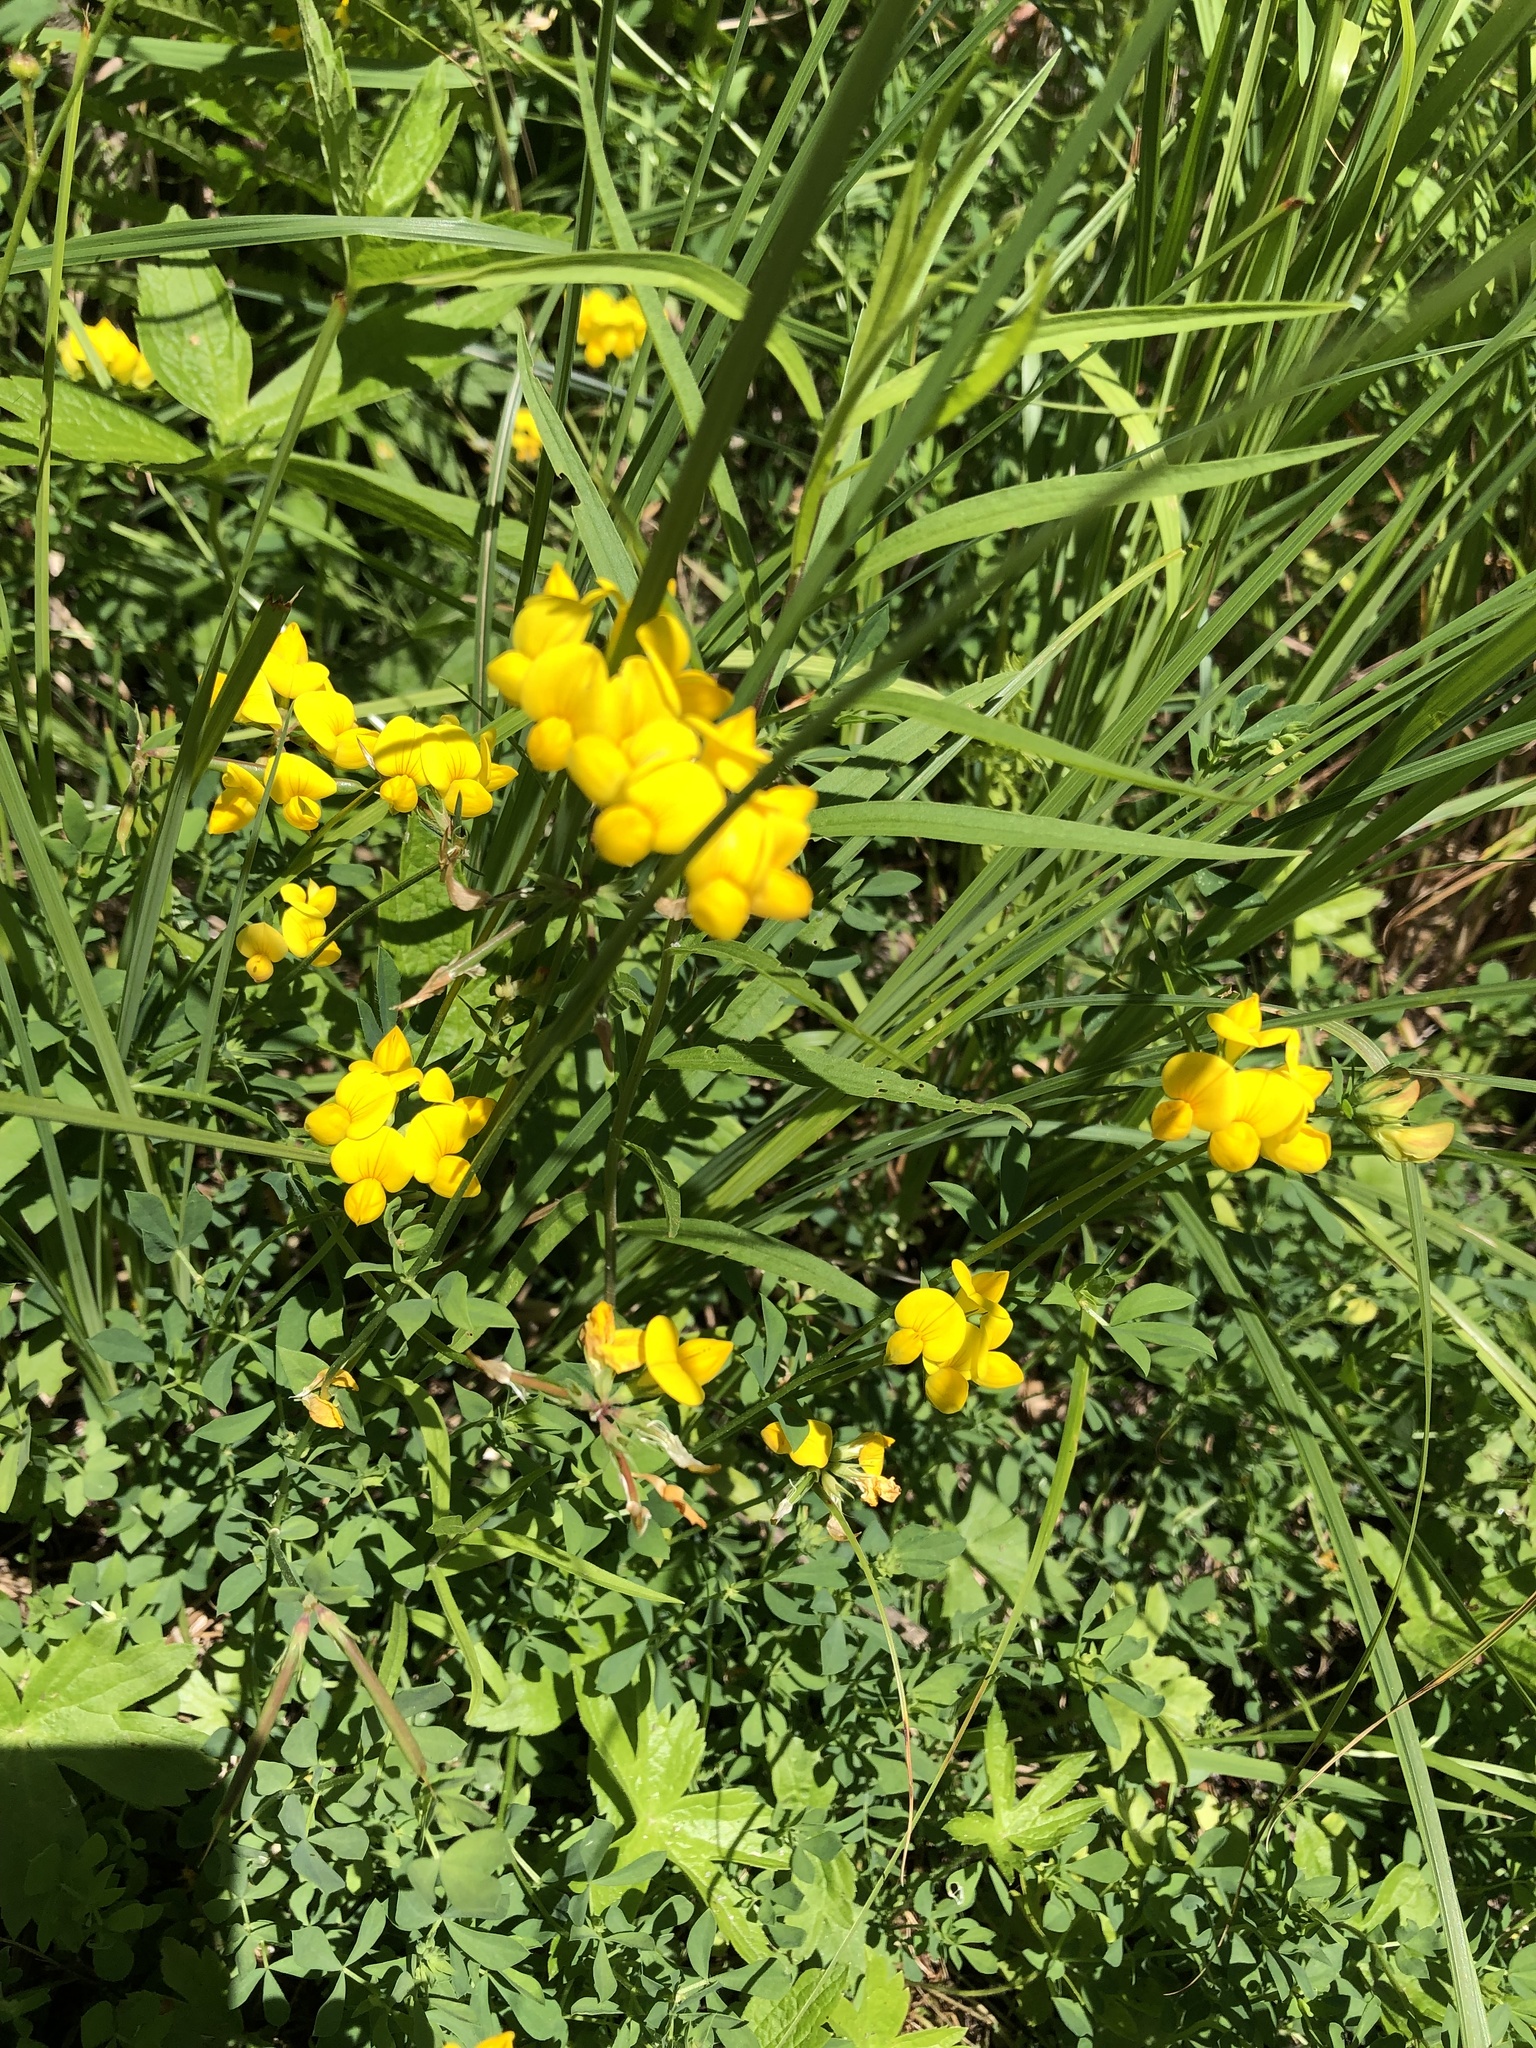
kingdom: Plantae
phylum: Tracheophyta
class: Magnoliopsida
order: Fabales
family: Fabaceae
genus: Lotus
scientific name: Lotus corniculatus
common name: Common bird's-foot-trefoil
